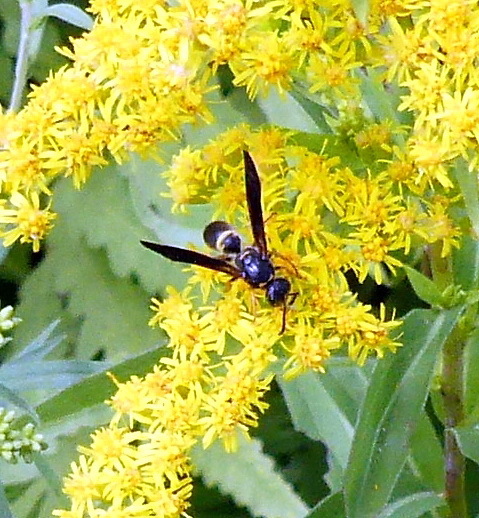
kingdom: Animalia
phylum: Arthropoda
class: Insecta
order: Hymenoptera
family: Vespidae
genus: Ancistrocerus
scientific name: Ancistrocerus unifasciatus
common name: One-banded mason wasp
